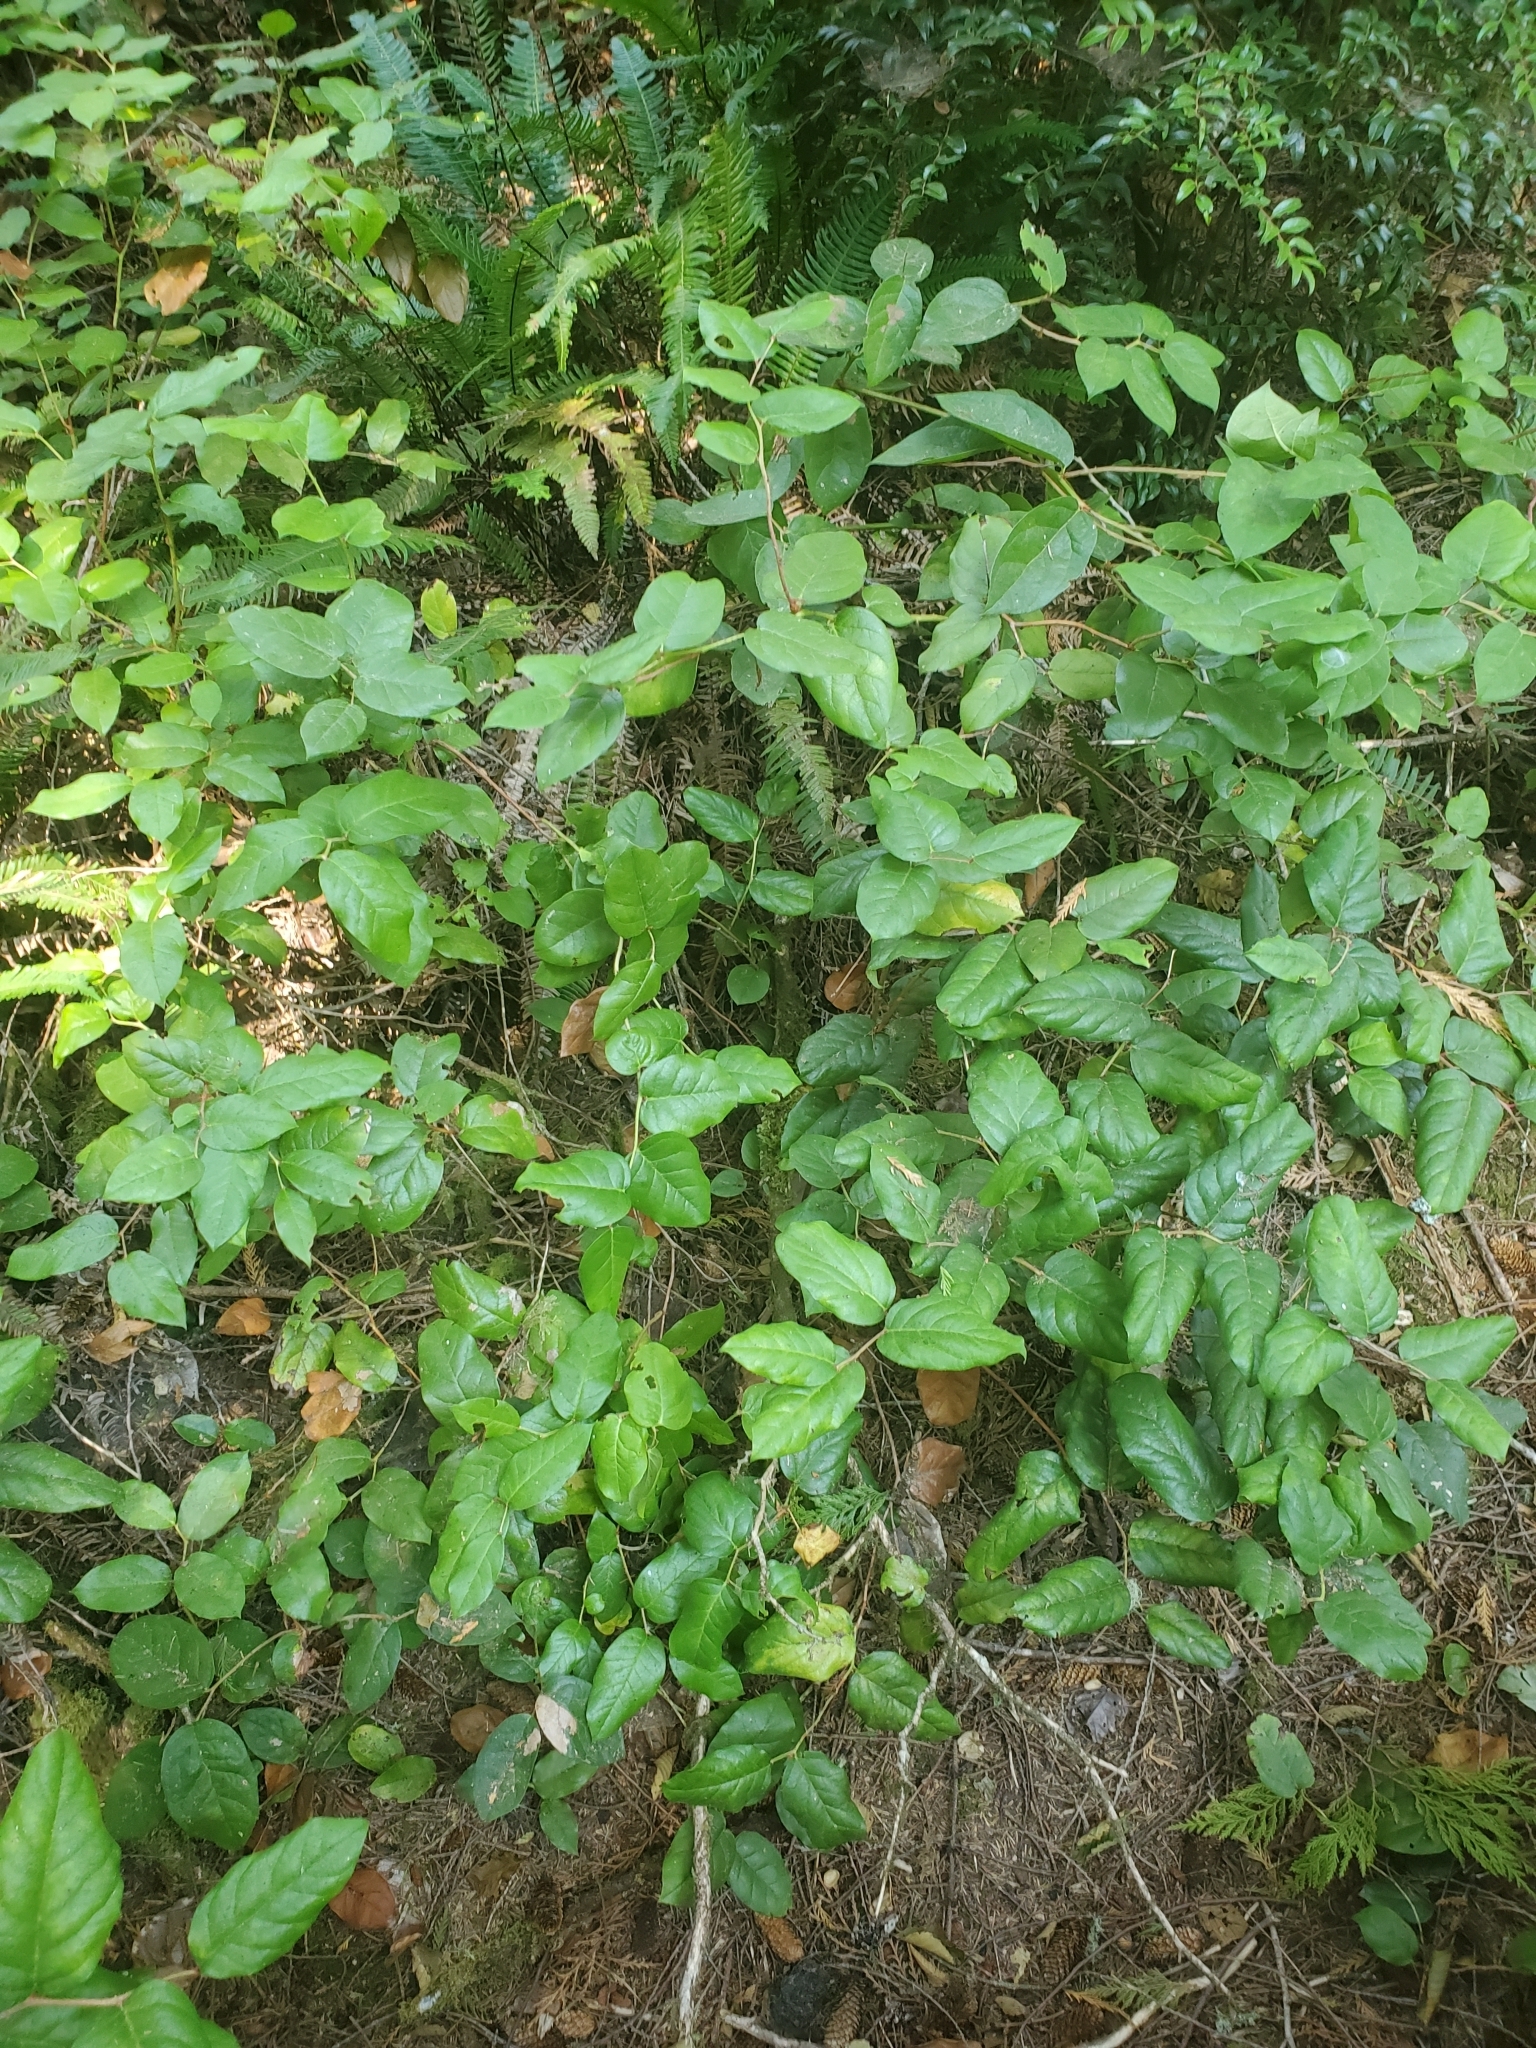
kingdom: Plantae
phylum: Tracheophyta
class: Magnoliopsida
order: Ericales
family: Ericaceae
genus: Gaultheria
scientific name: Gaultheria shallon
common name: Shallon
